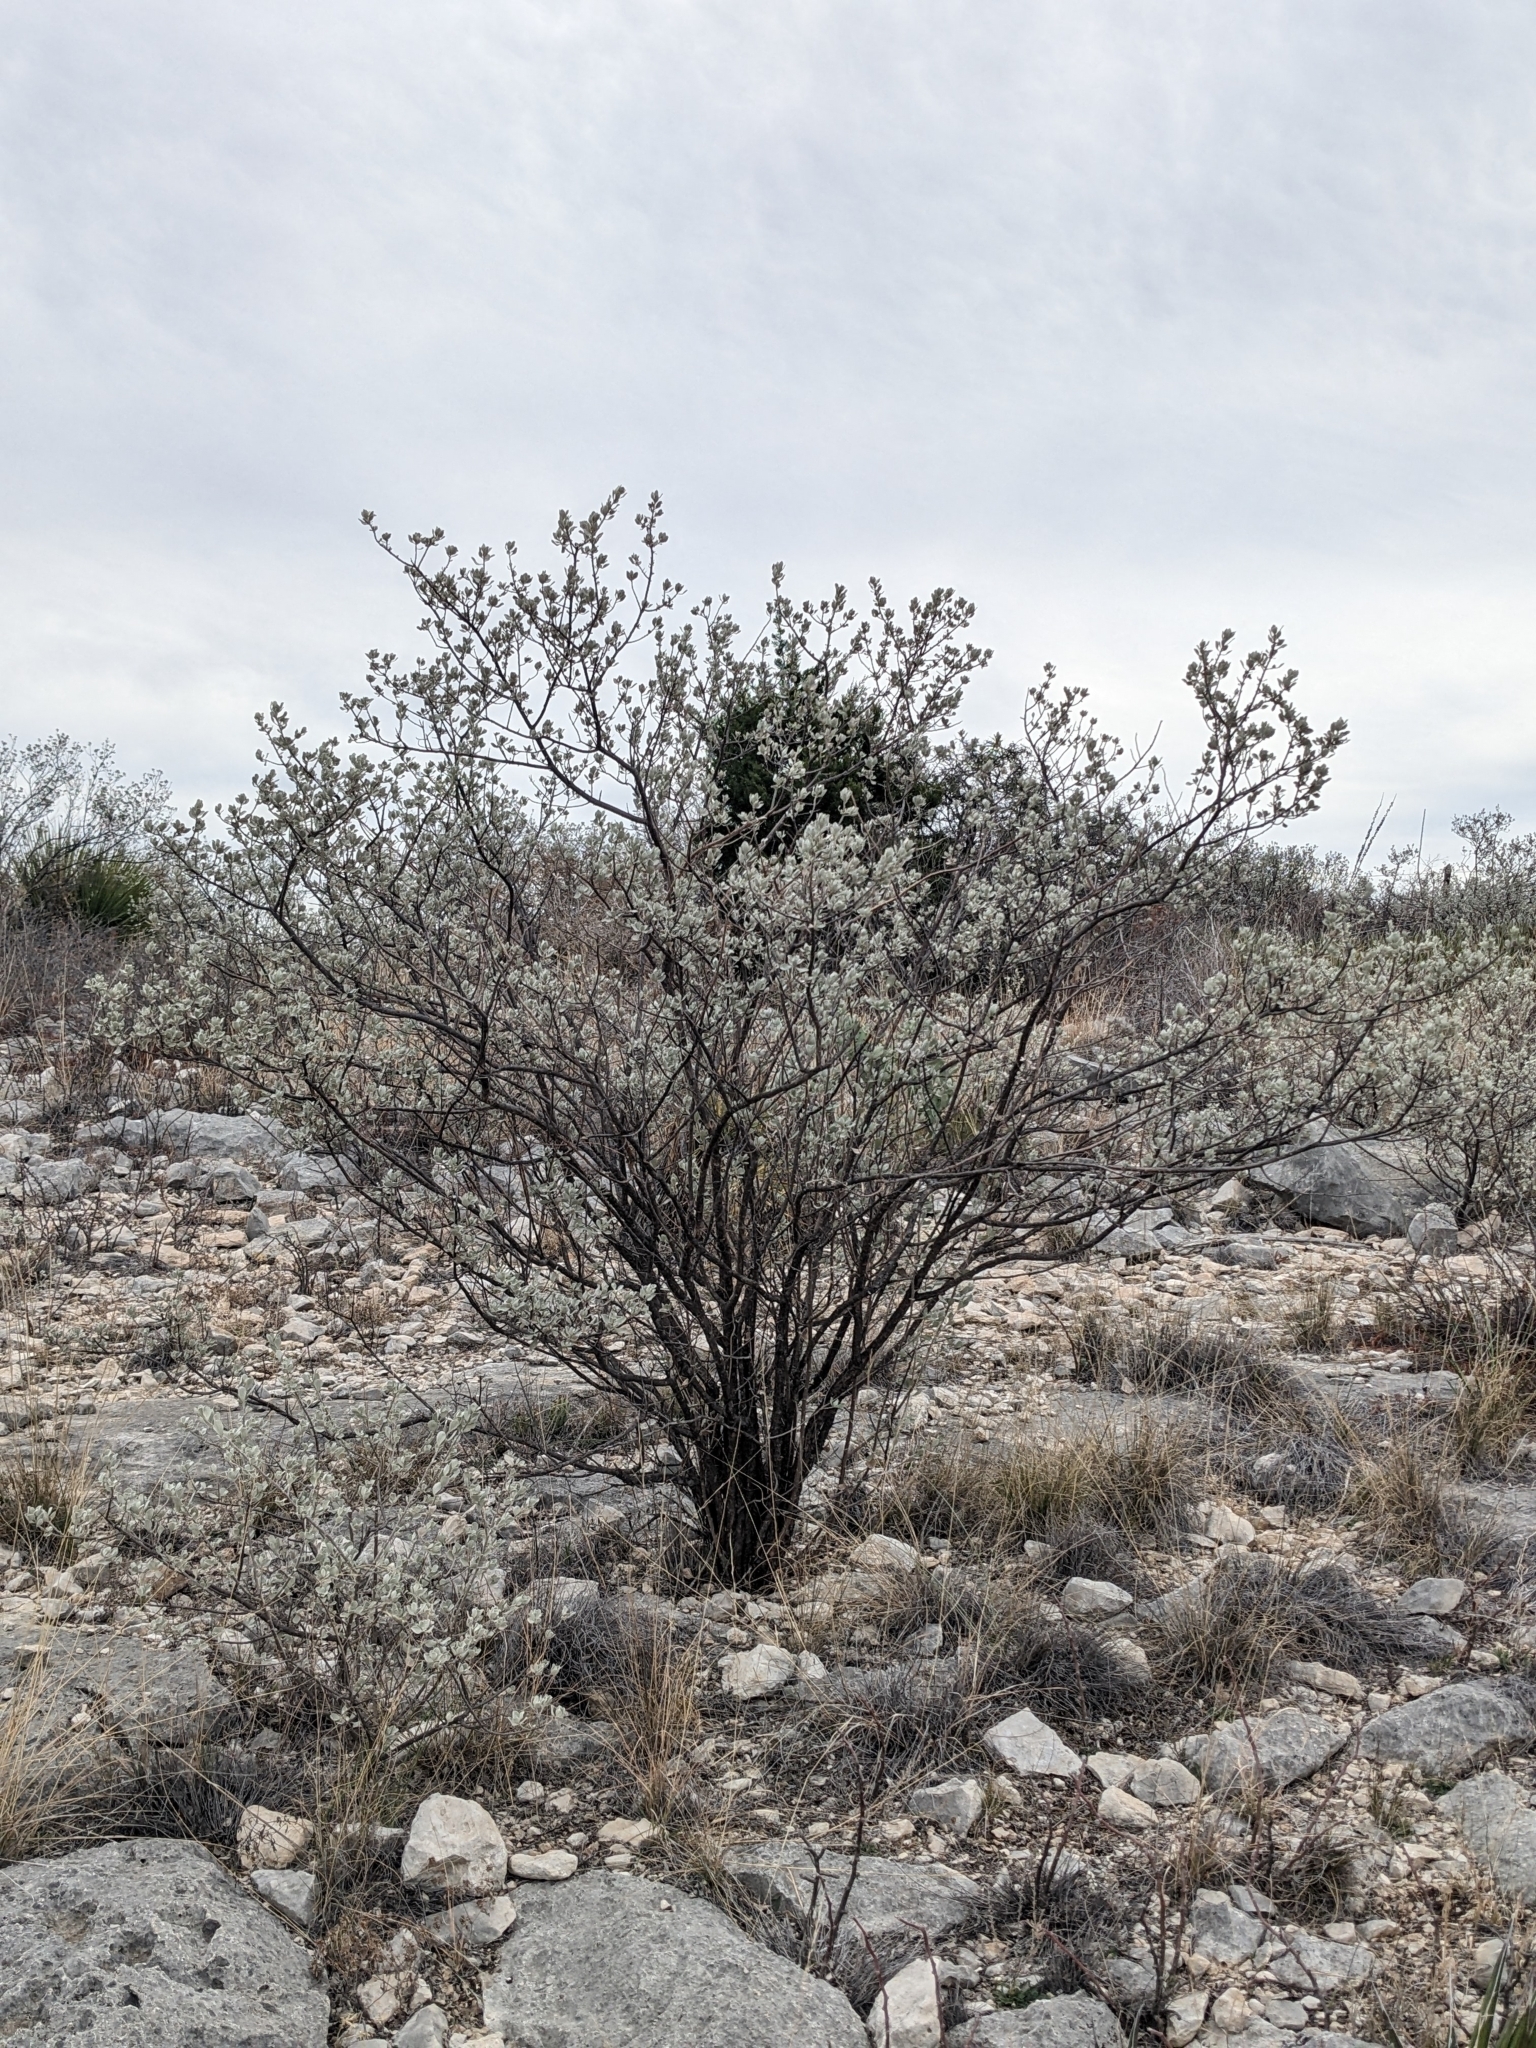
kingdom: Plantae
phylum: Tracheophyta
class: Magnoliopsida
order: Lamiales
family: Scrophulariaceae
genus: Leucophyllum
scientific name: Leucophyllum frutescens
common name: Texas silverleaf
